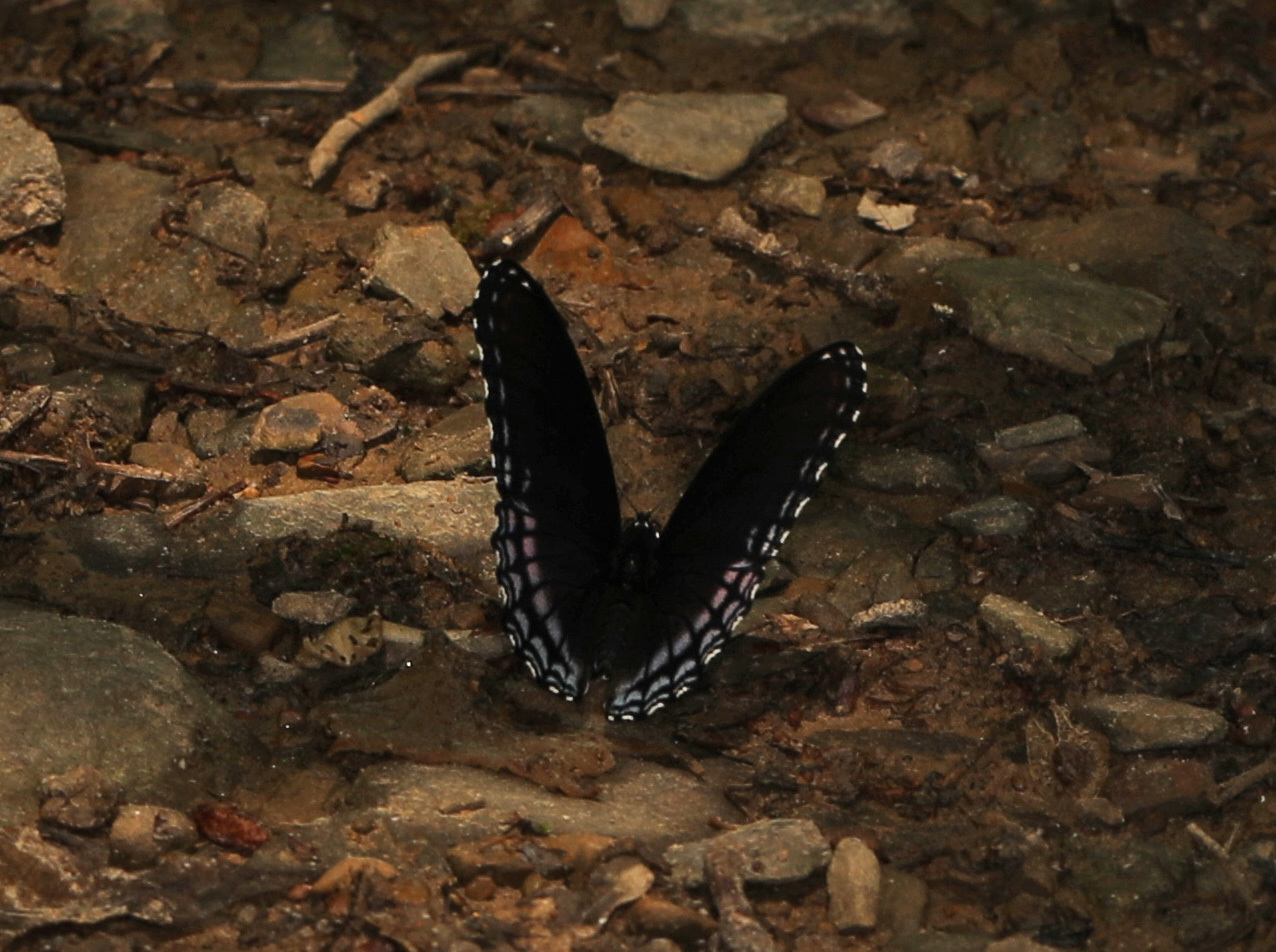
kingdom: Animalia
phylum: Arthropoda
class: Insecta
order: Lepidoptera
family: Nymphalidae
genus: Limenitis
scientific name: Limenitis astyanax
